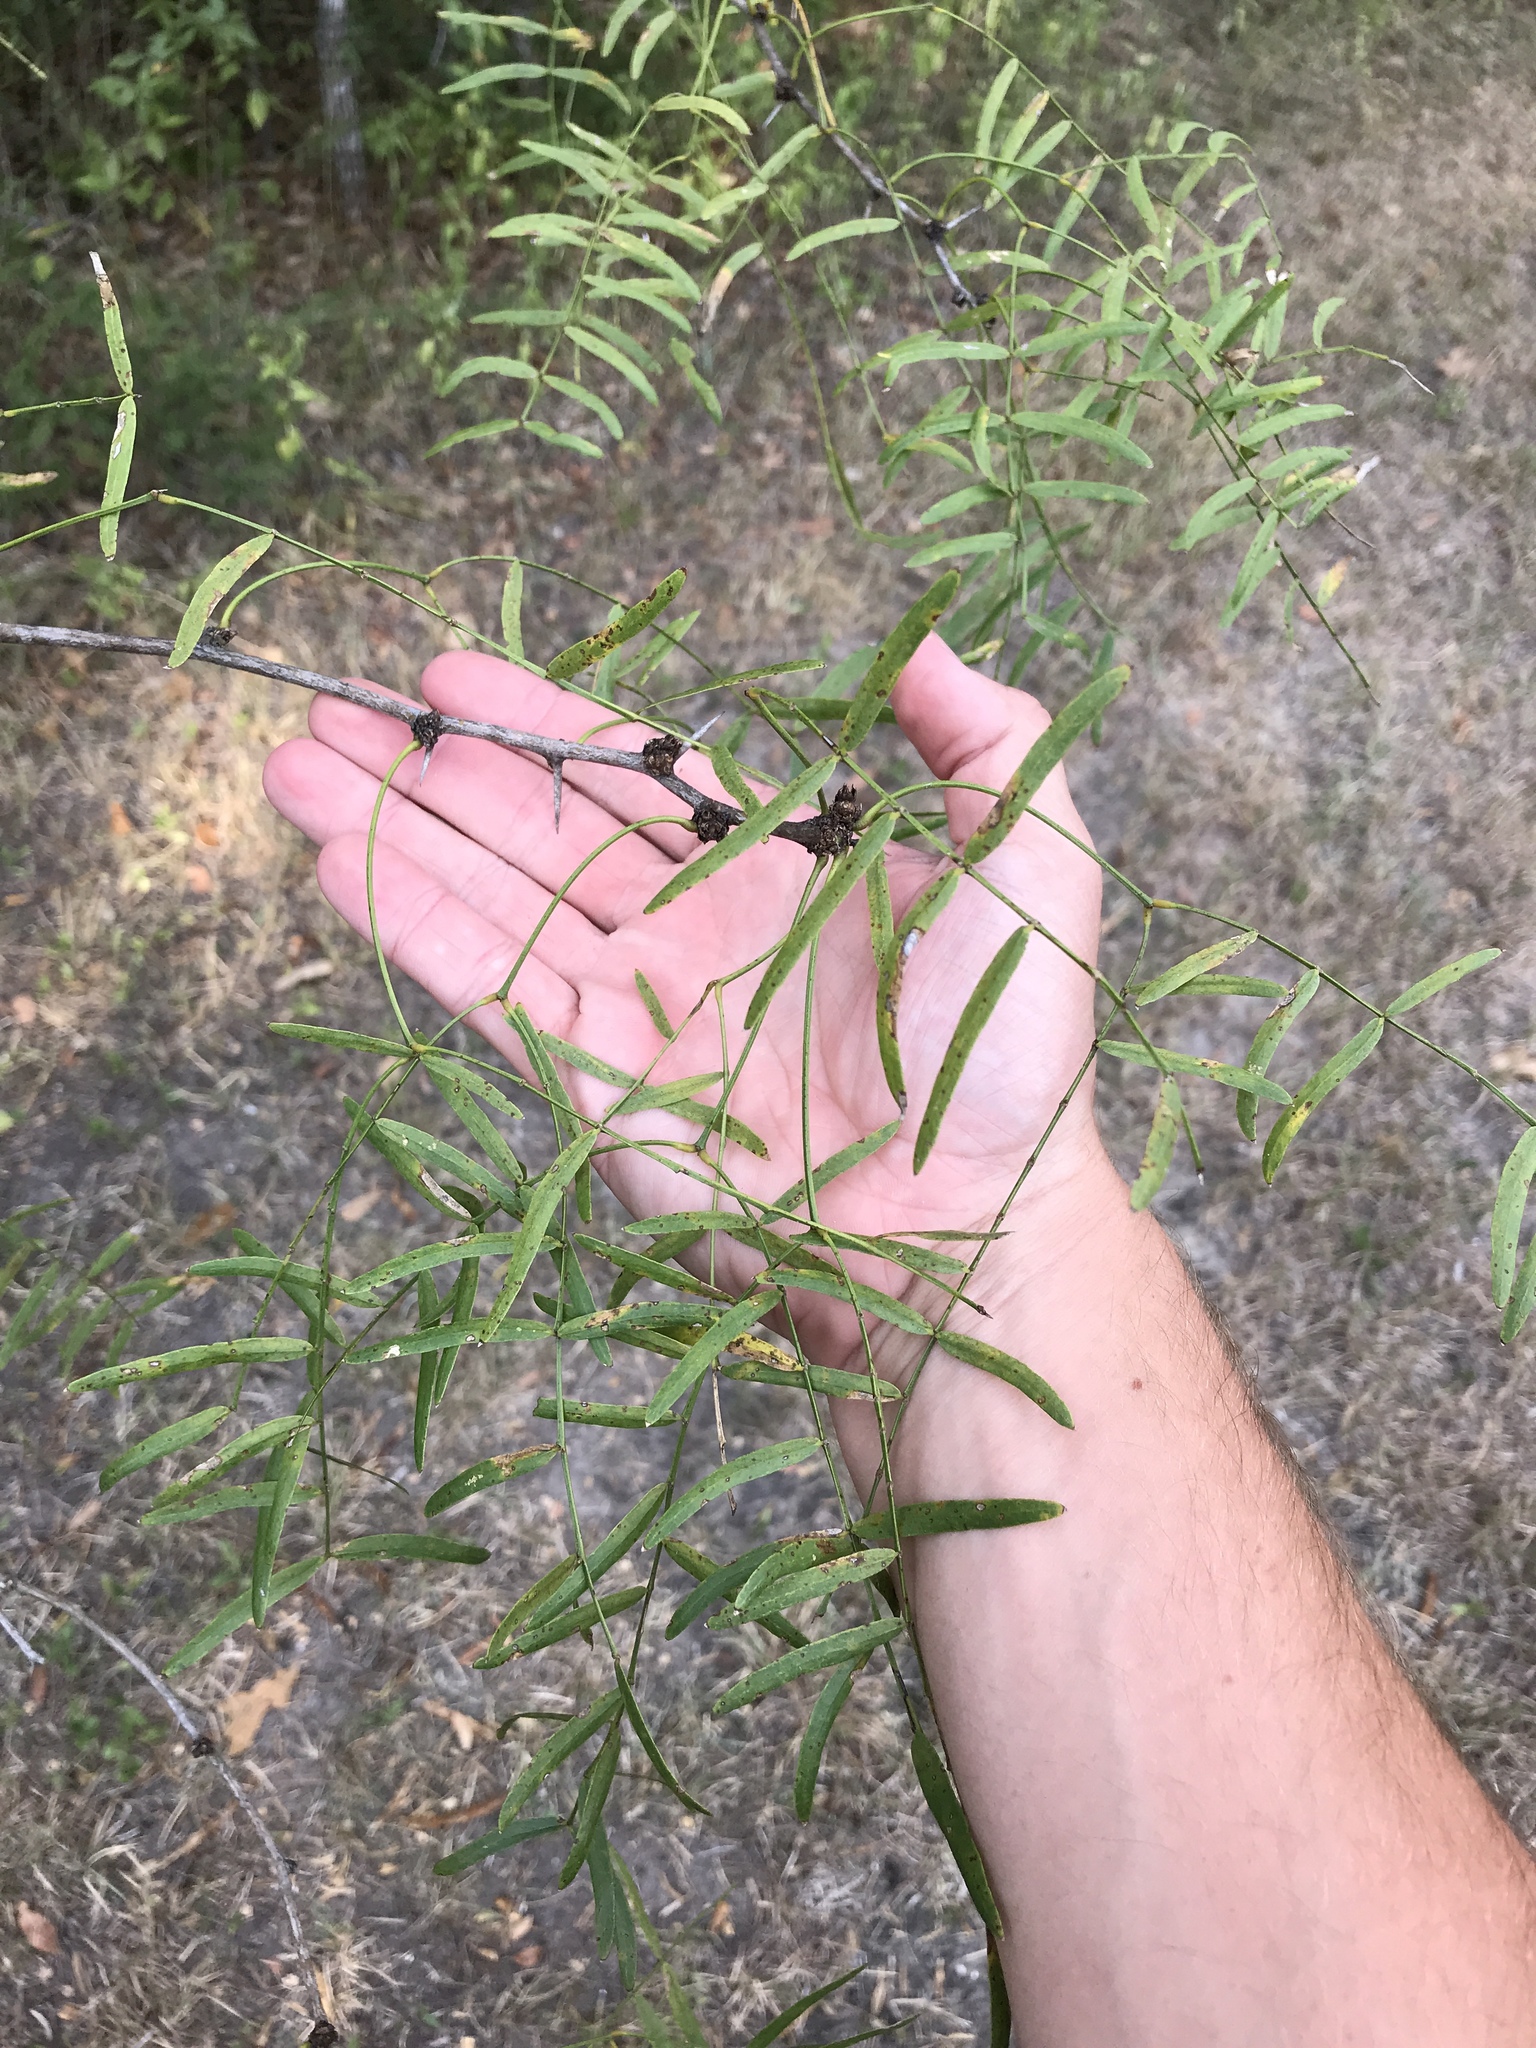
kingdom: Plantae
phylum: Tracheophyta
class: Magnoliopsida
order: Fabales
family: Fabaceae
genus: Prosopis
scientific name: Prosopis glandulosa
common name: Honey mesquite
